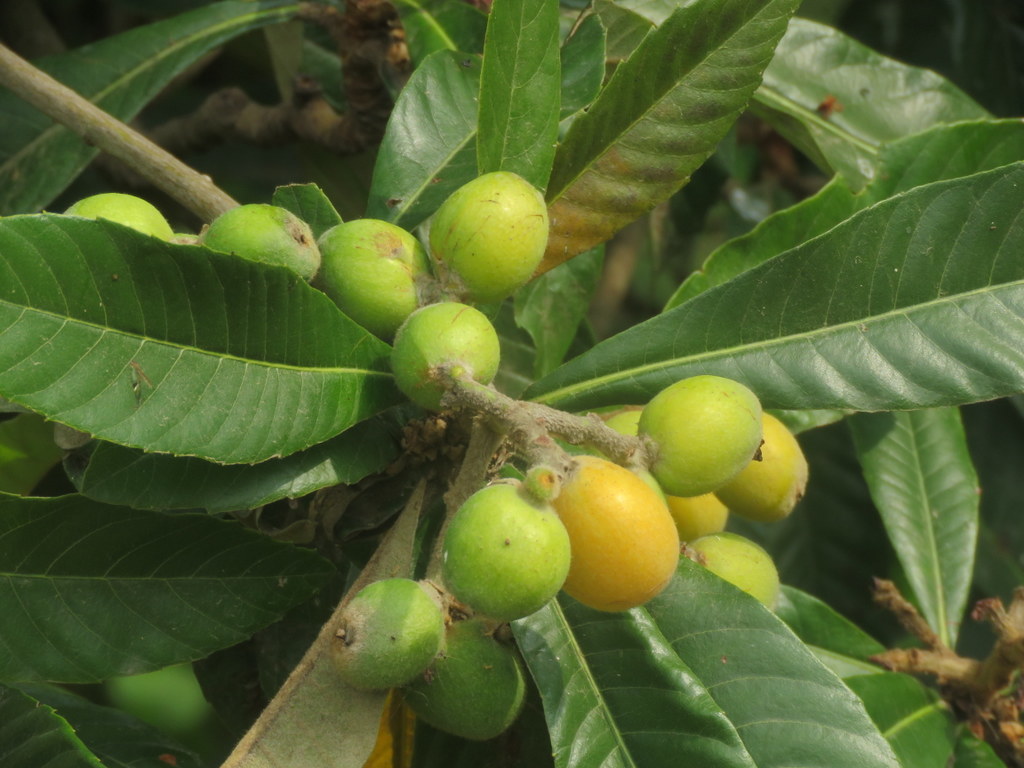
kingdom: Plantae
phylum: Tracheophyta
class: Magnoliopsida
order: Rosales
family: Rosaceae
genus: Rhaphiolepis
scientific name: Rhaphiolepis bibas
